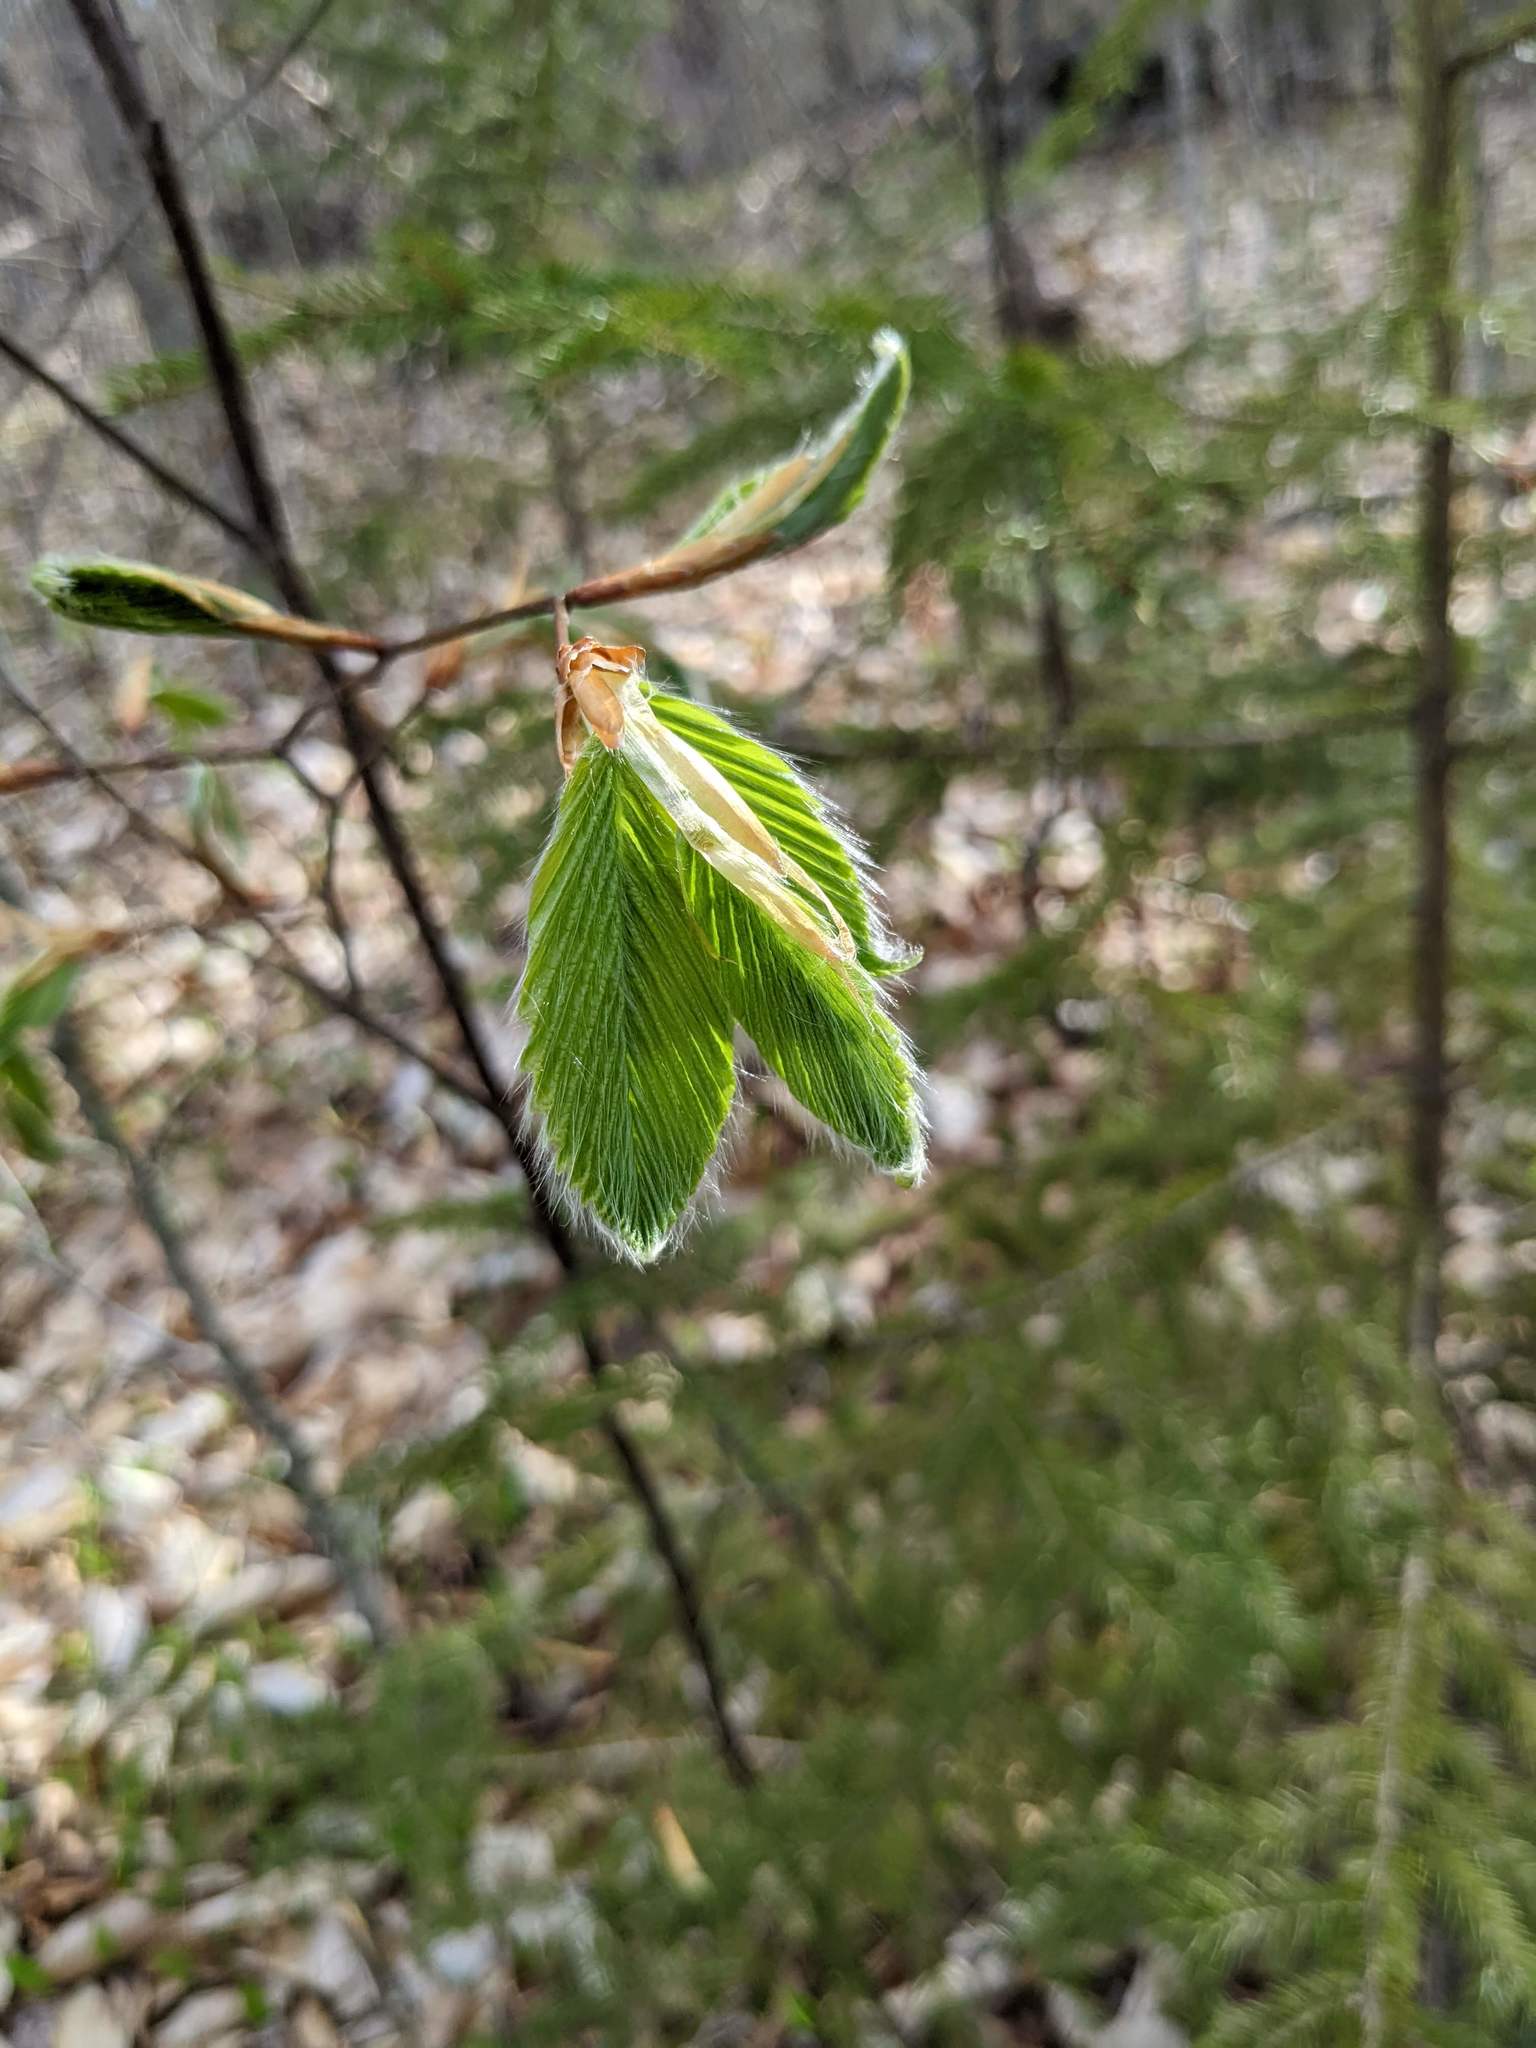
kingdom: Plantae
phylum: Tracheophyta
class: Magnoliopsida
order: Fagales
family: Fagaceae
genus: Fagus
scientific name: Fagus grandifolia
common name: American beech
